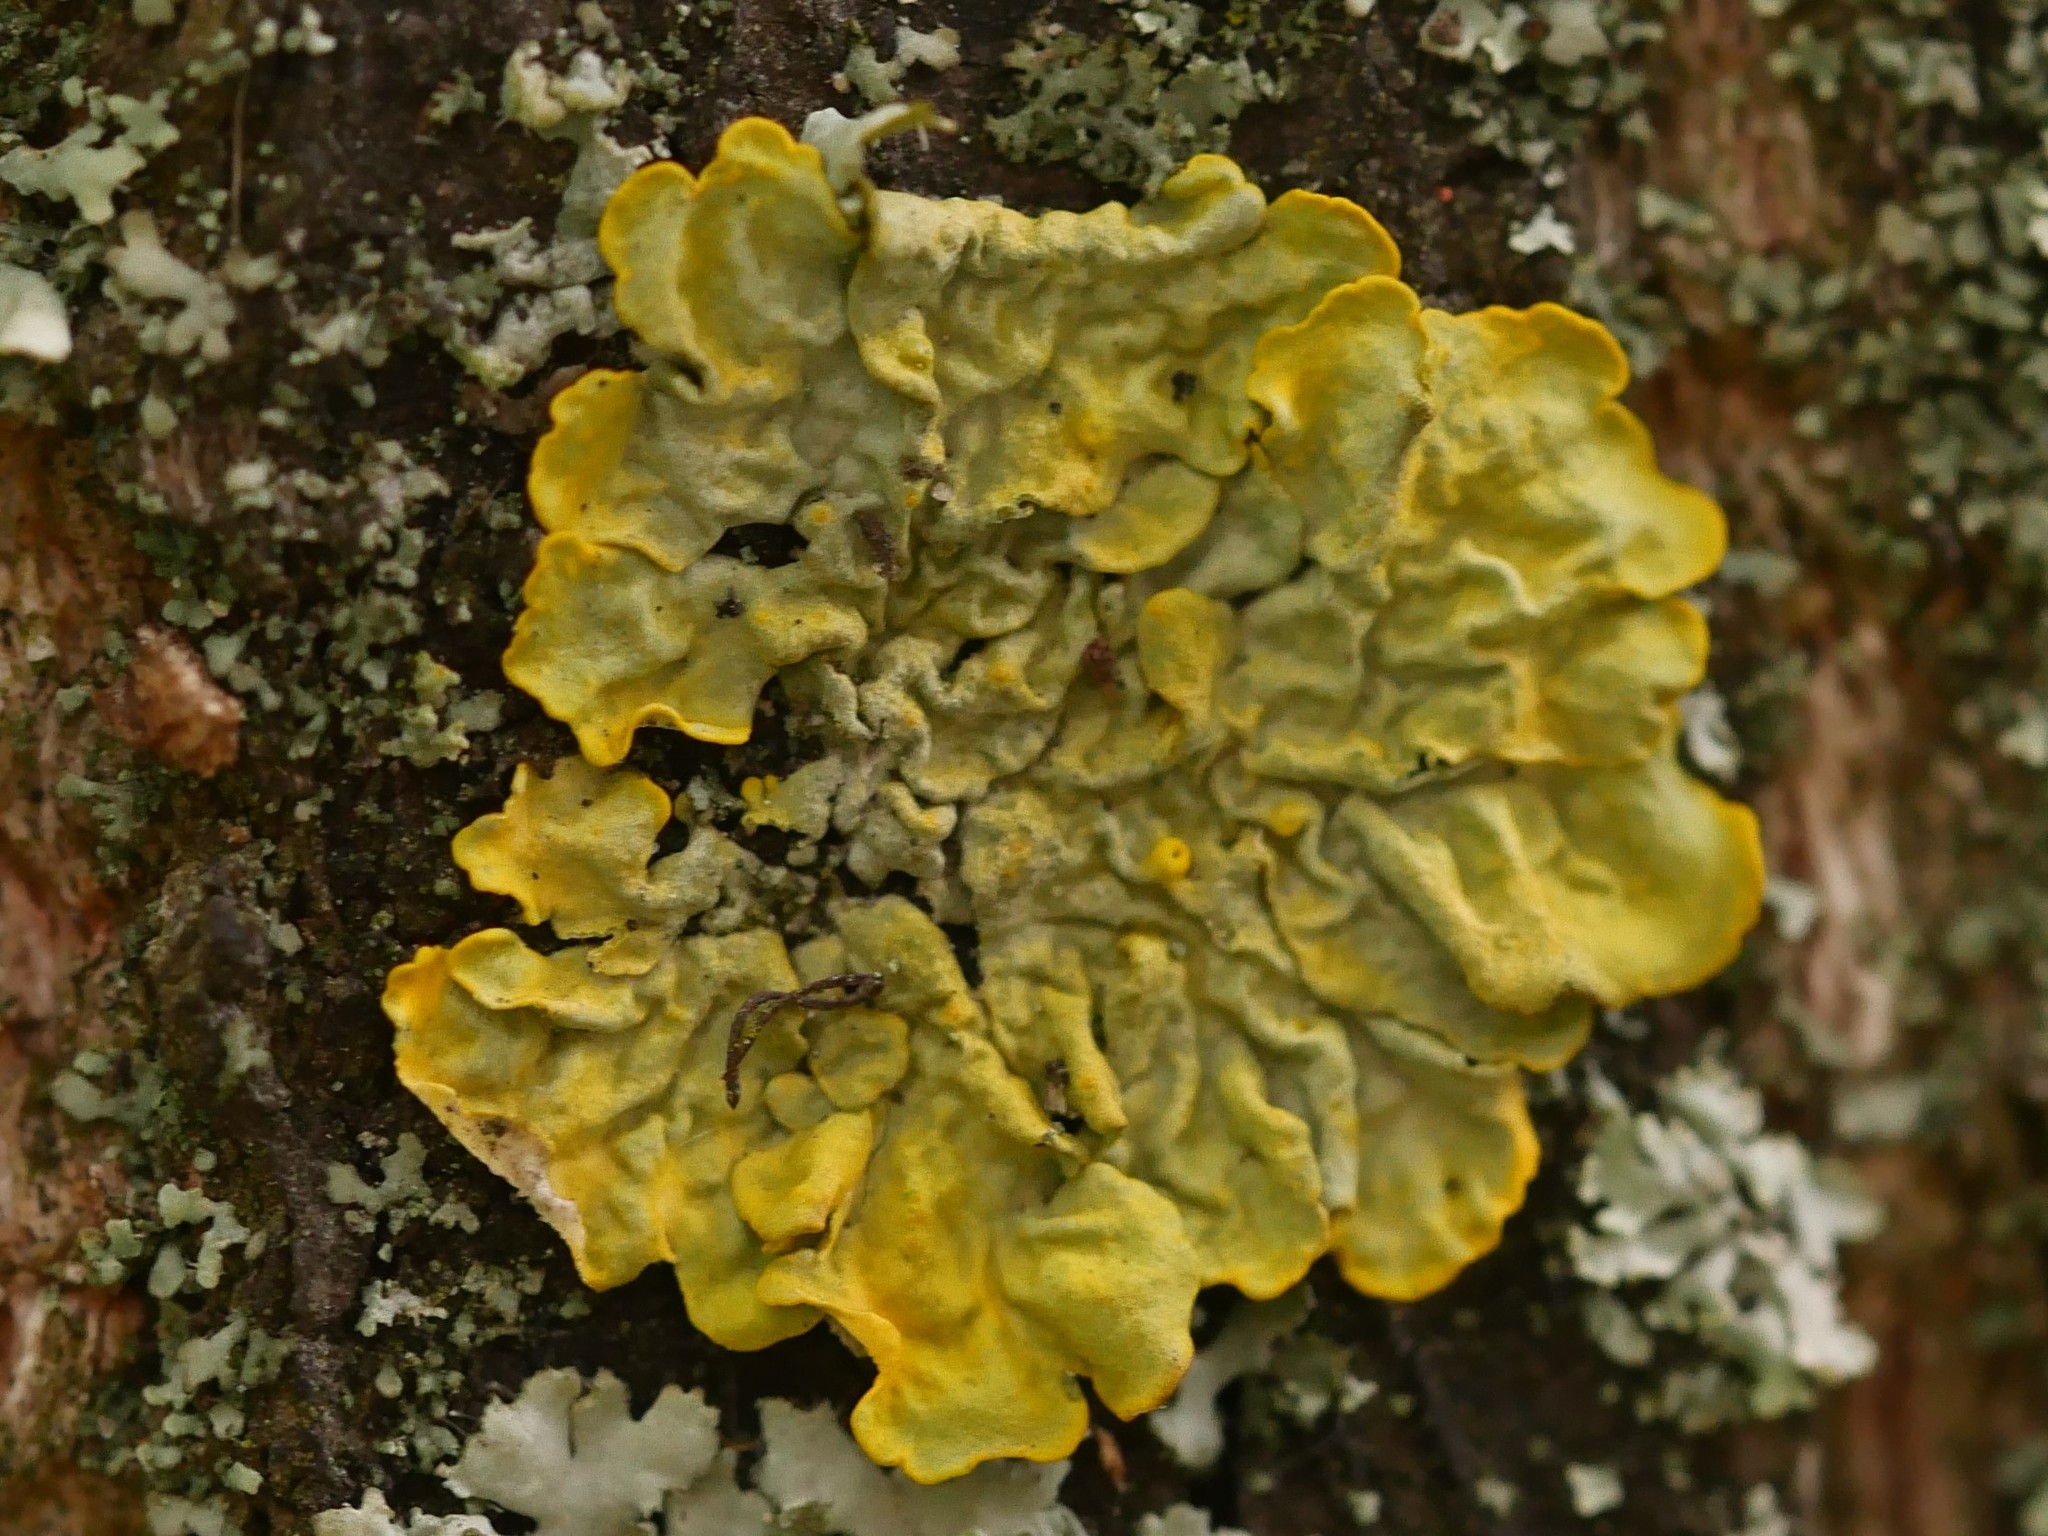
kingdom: Fungi
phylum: Ascomycota
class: Lecanoromycetes
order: Teloschistales
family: Teloschistaceae
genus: Xanthoria
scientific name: Xanthoria parietina
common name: Common orange lichen
